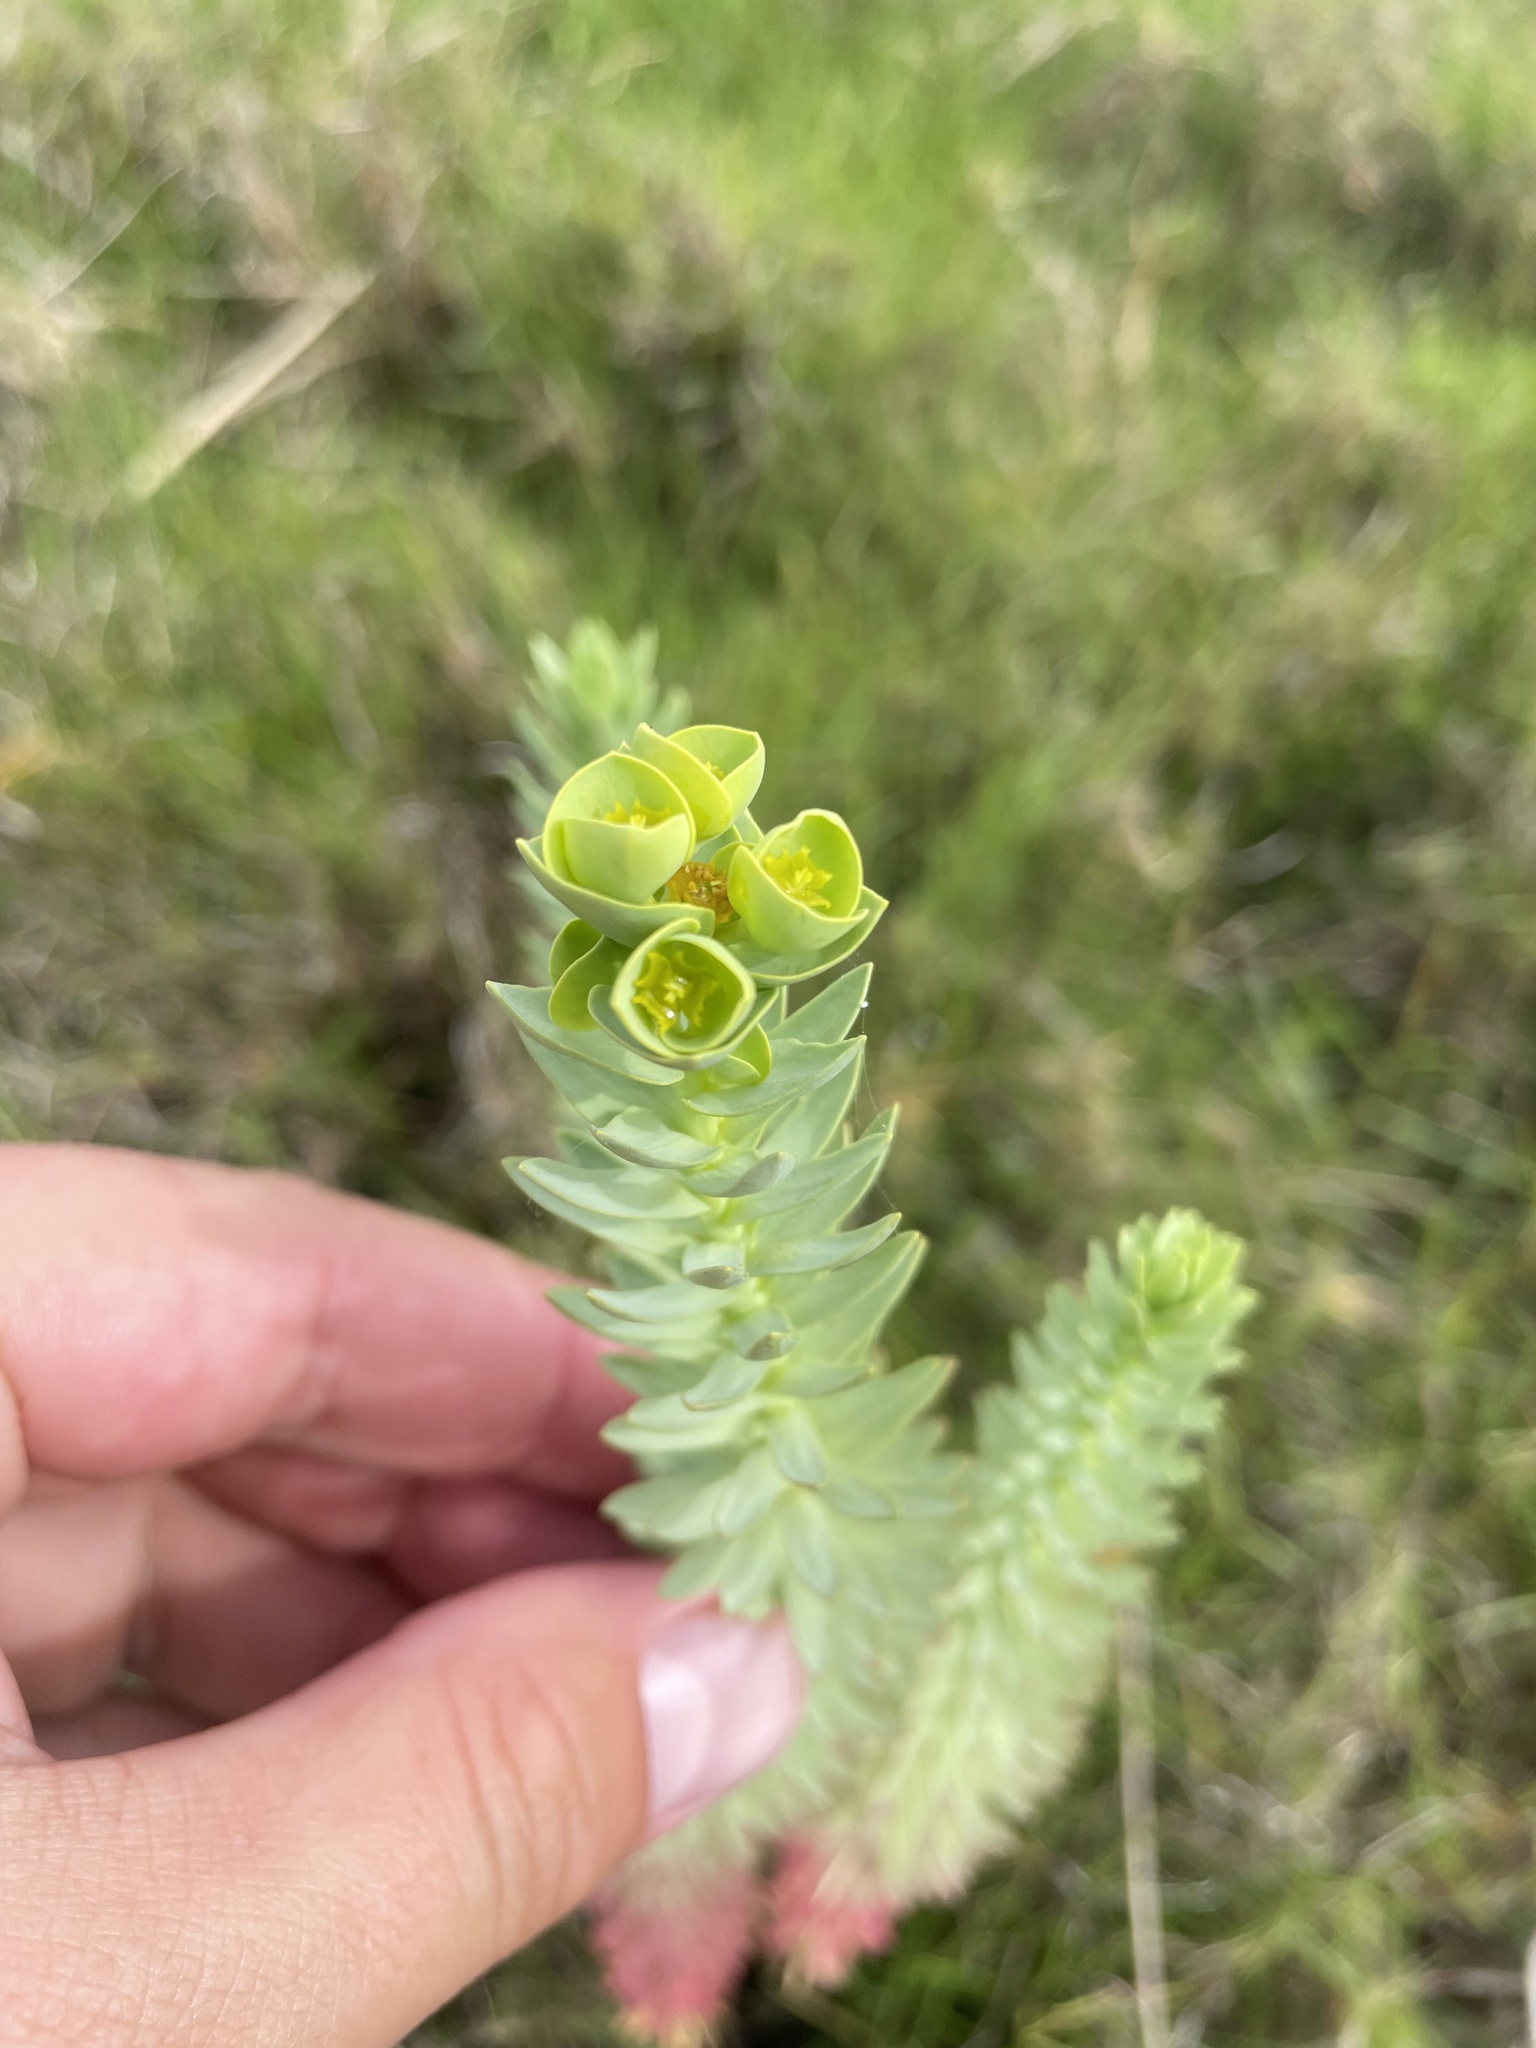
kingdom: Plantae
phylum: Tracheophyta
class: Magnoliopsida
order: Malpighiales
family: Euphorbiaceae
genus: Euphorbia
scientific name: Euphorbia paralias
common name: Sea spurge
